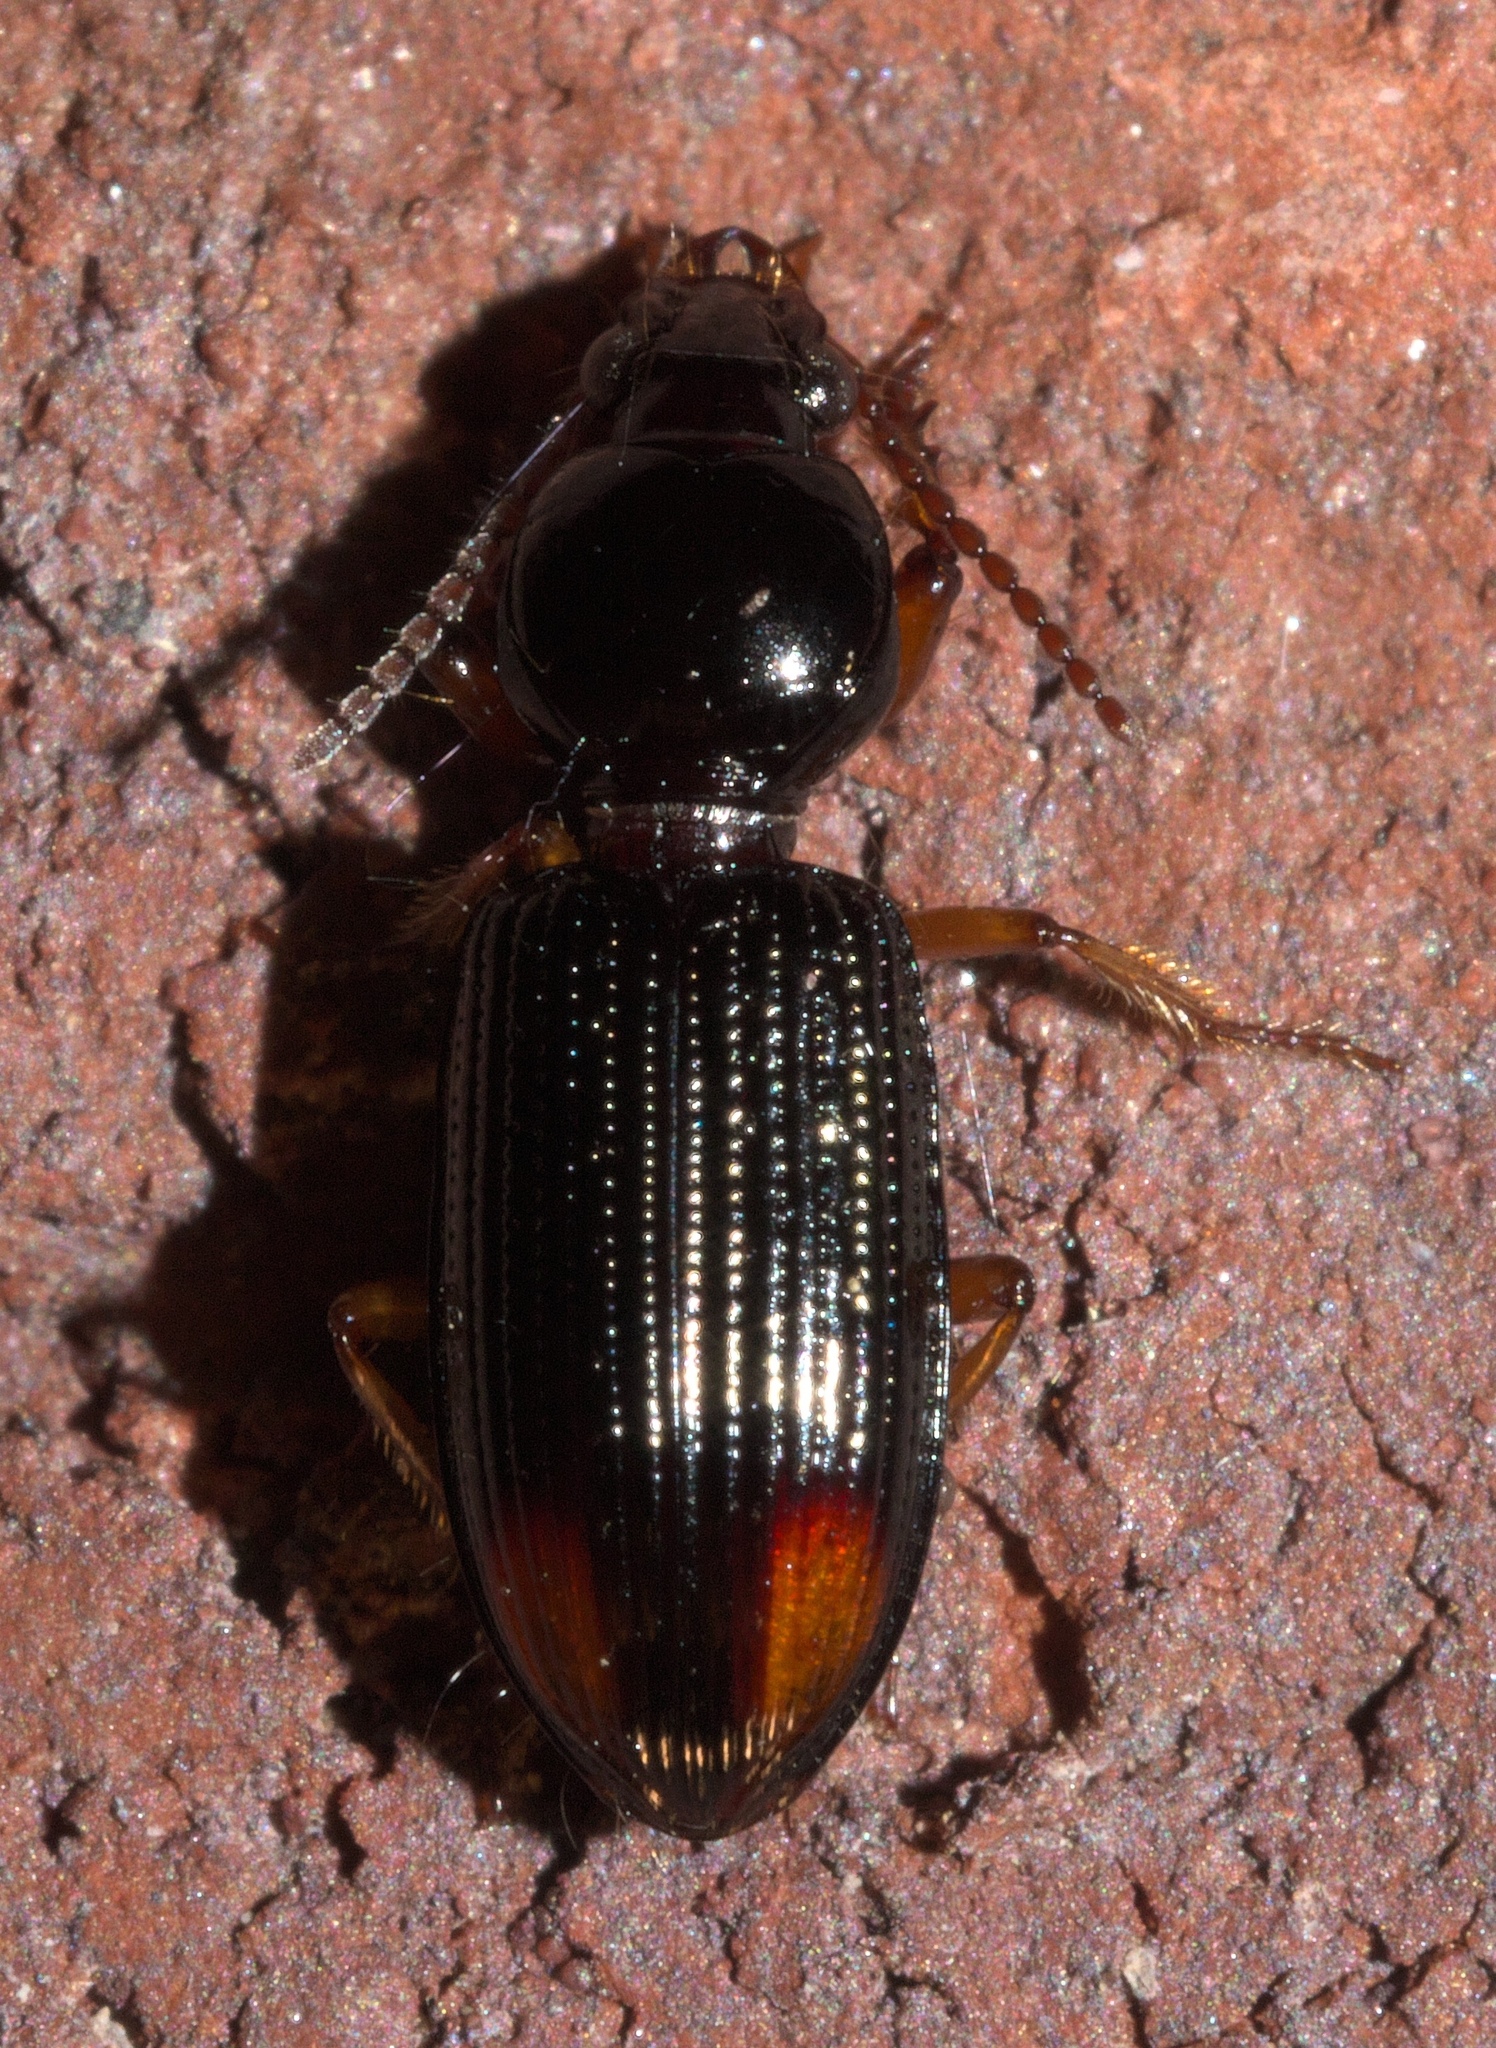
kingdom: Animalia
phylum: Arthropoda
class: Insecta
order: Coleoptera
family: Carabidae
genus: Aspidoglossa
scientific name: Aspidoglossa subangulata
